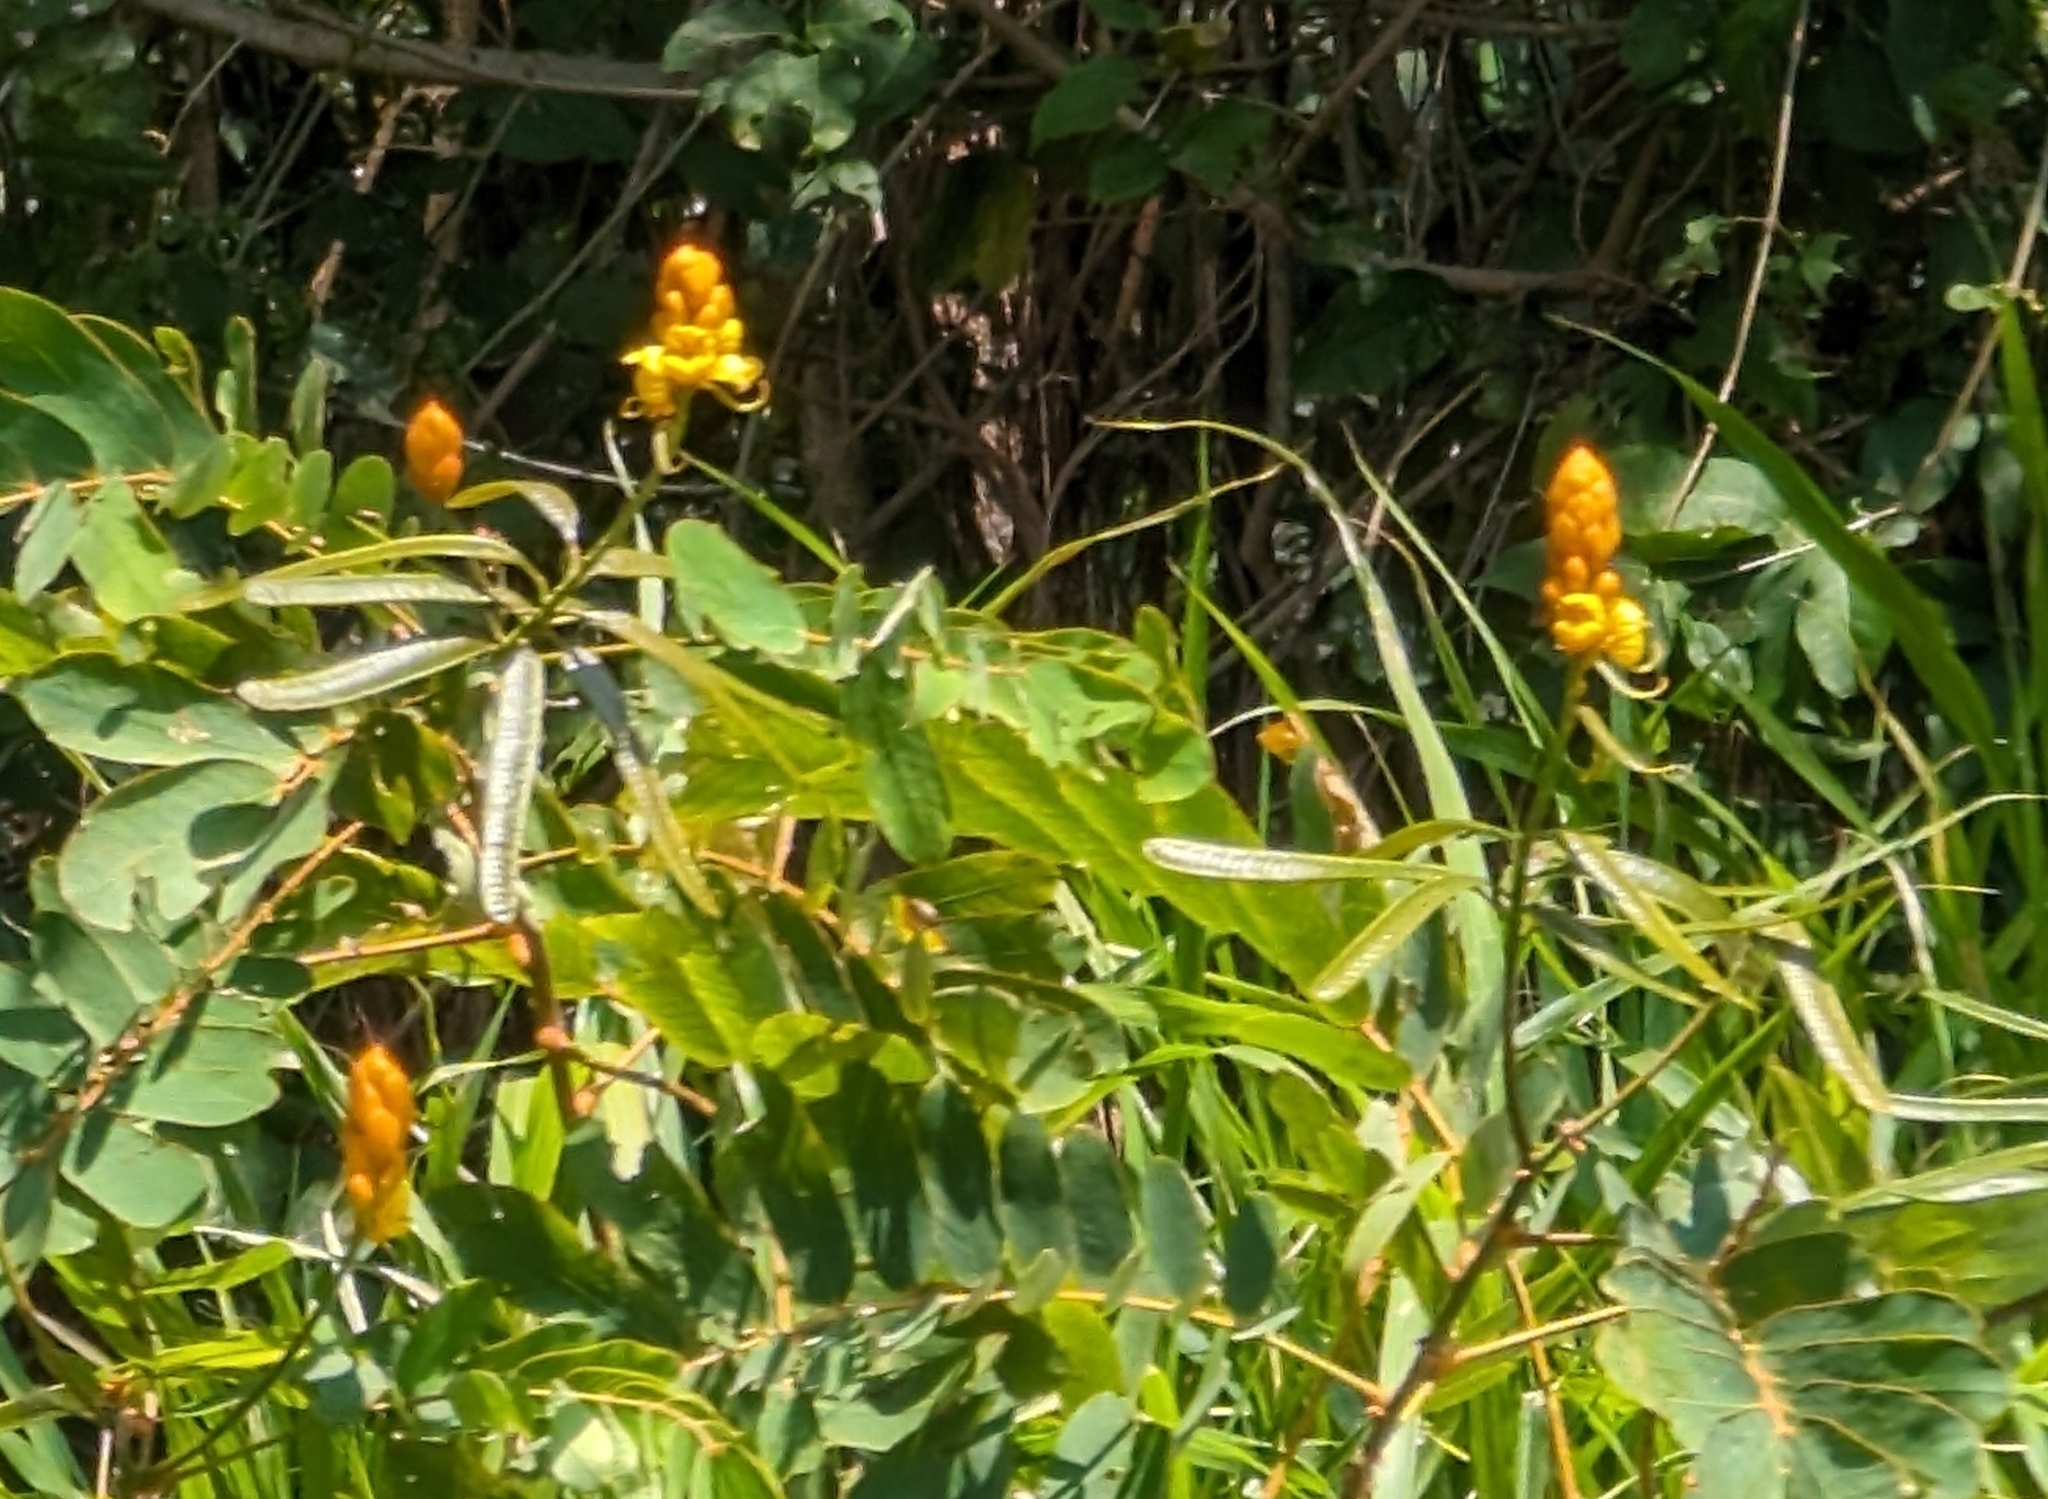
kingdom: Plantae
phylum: Tracheophyta
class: Magnoliopsida
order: Fabales
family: Fabaceae
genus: Senna
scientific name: Senna reticulata
